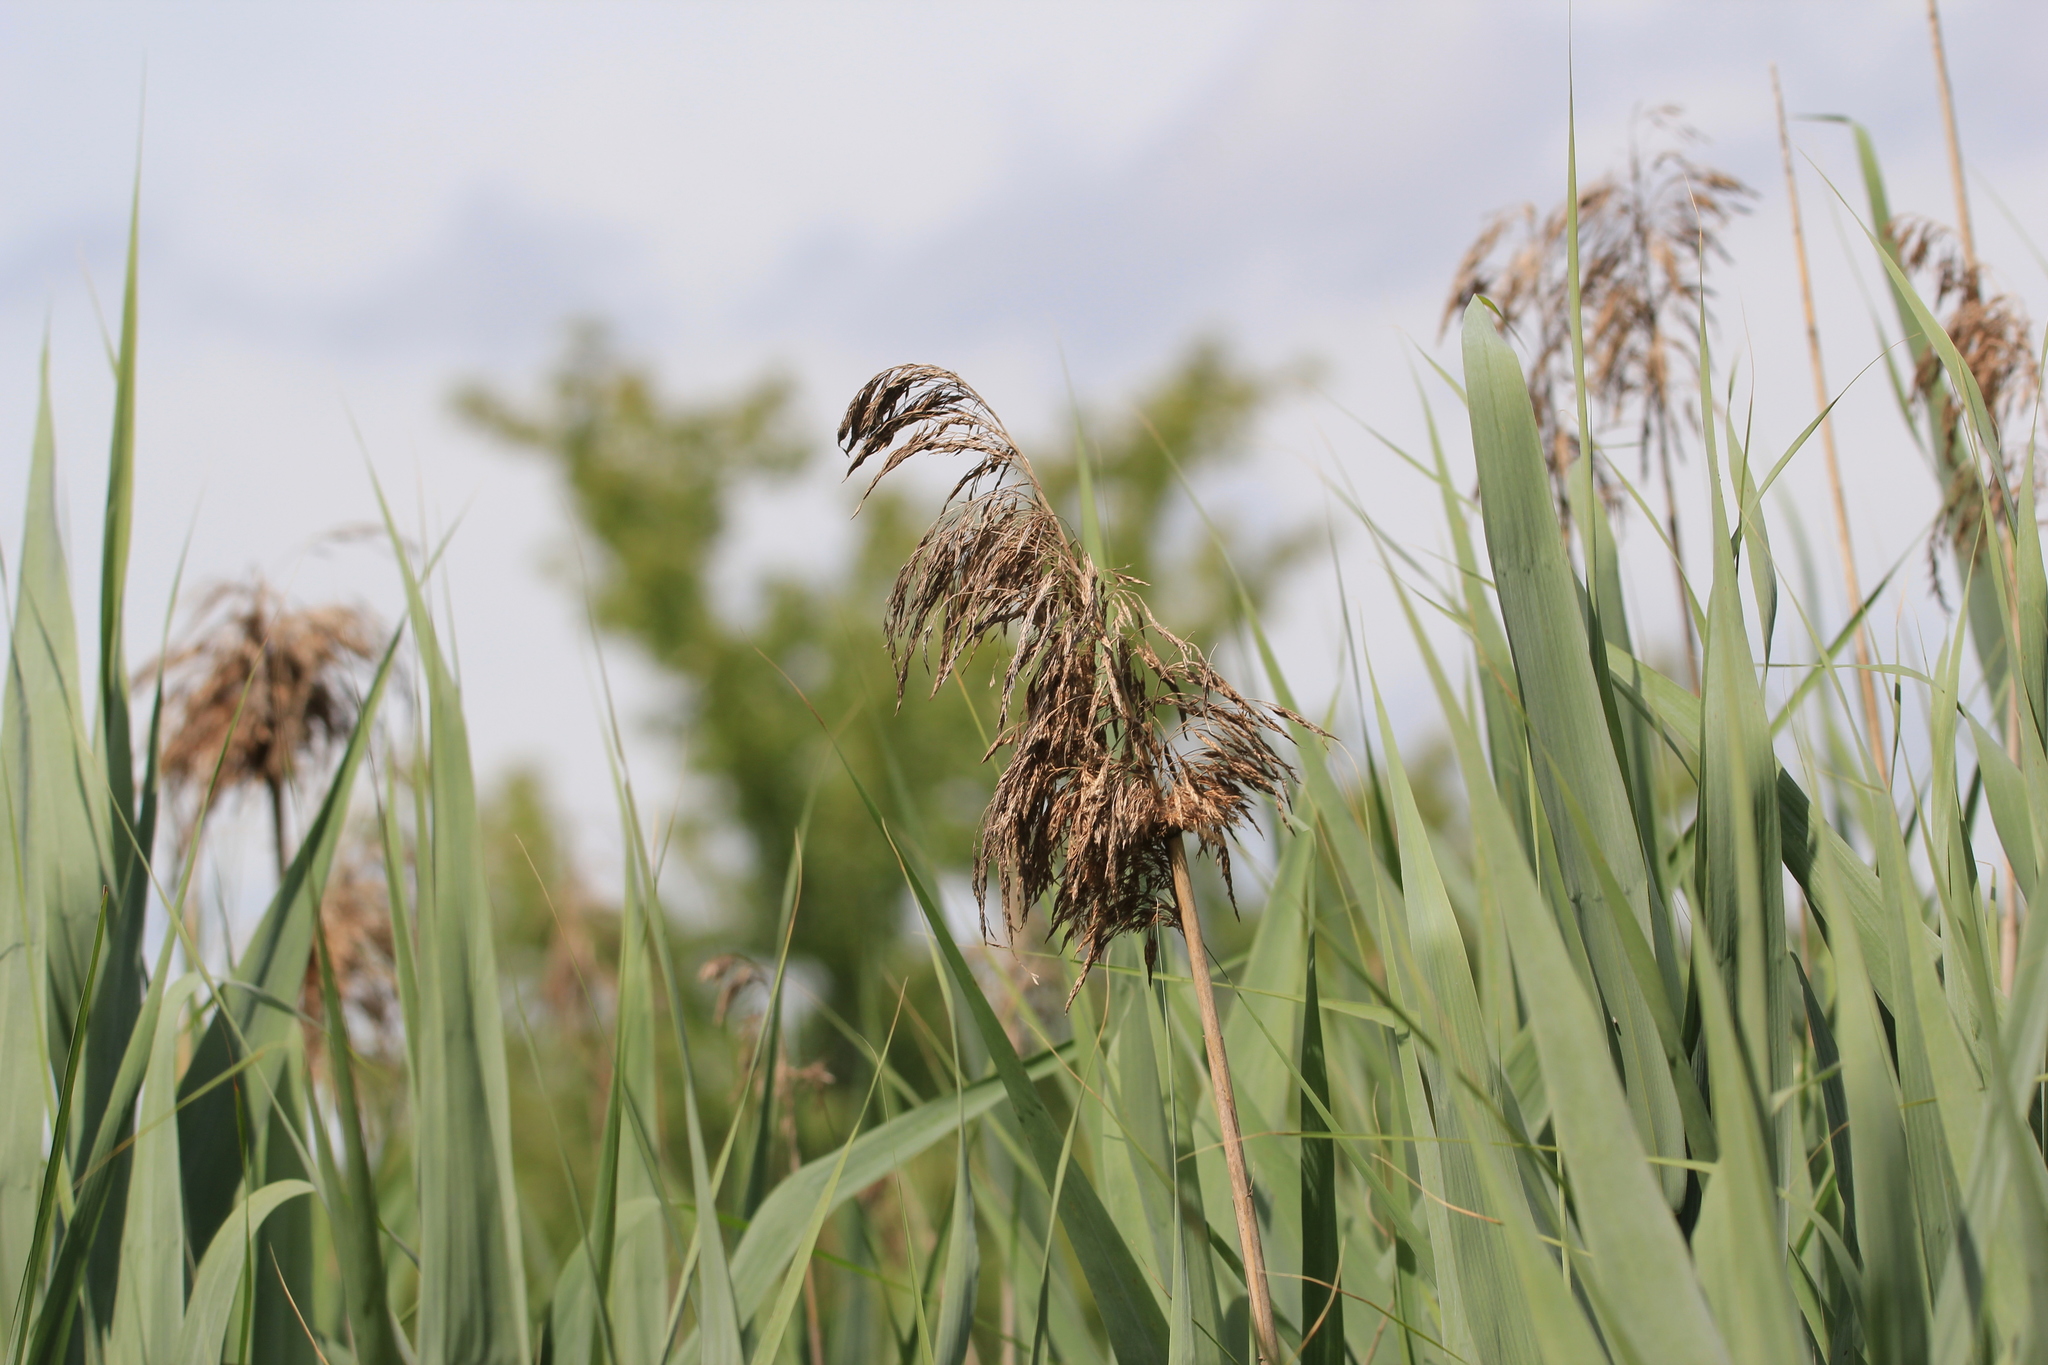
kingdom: Plantae
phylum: Tracheophyta
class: Liliopsida
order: Poales
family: Poaceae
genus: Phragmites
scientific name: Phragmites australis
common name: Common reed
